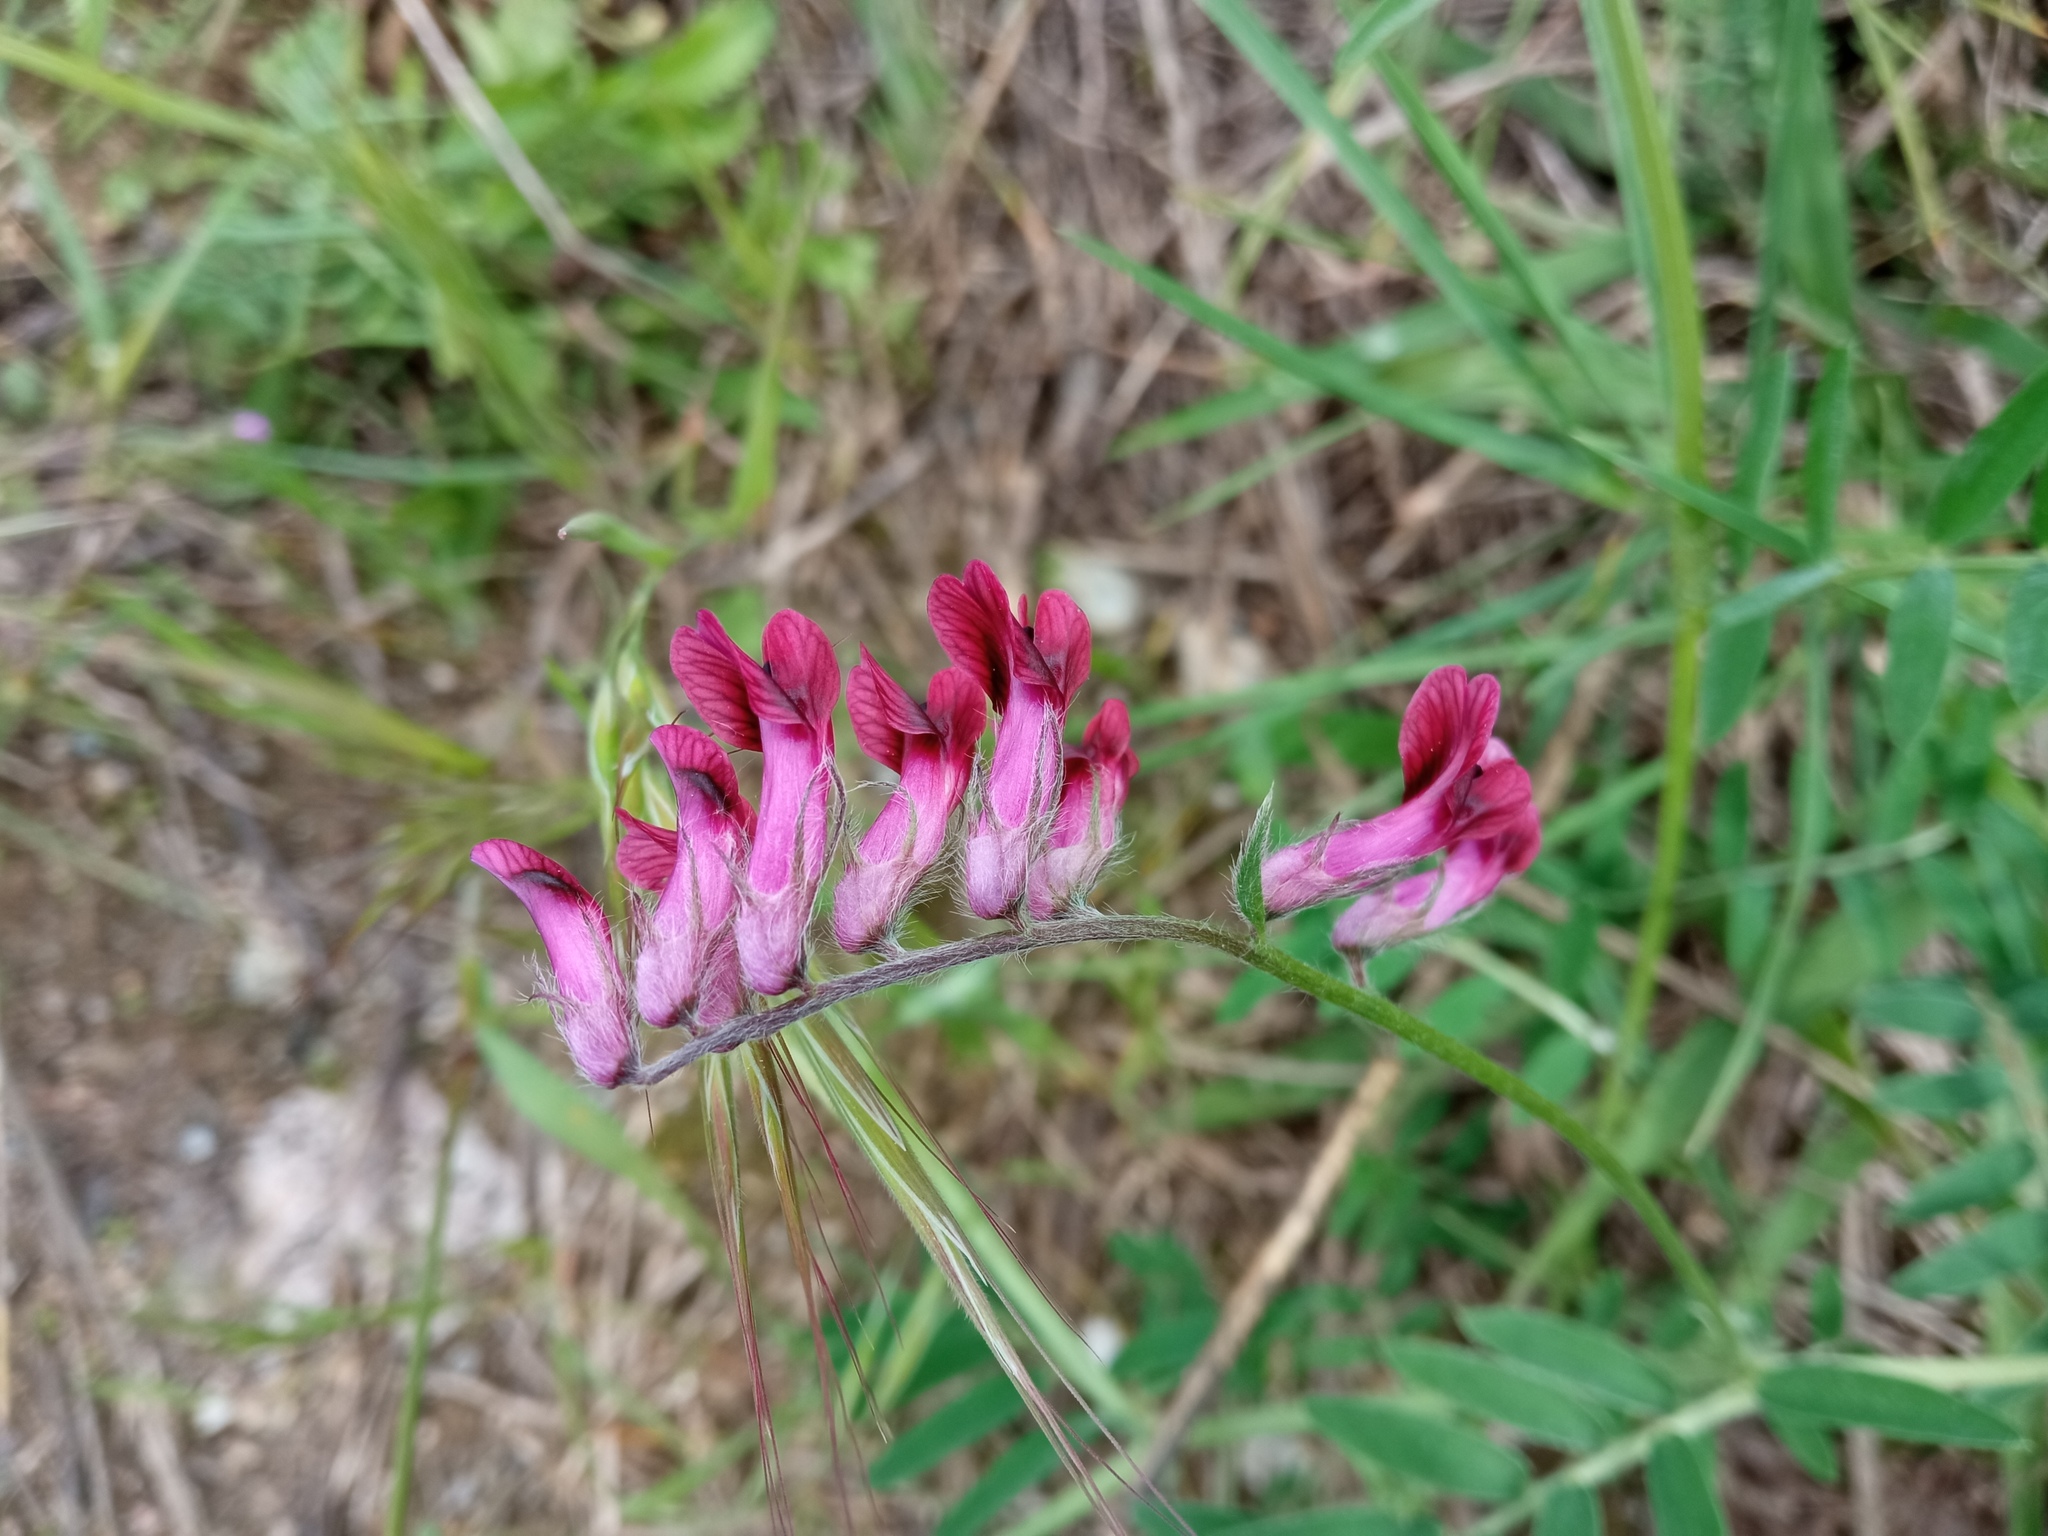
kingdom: Plantae
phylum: Tracheophyta
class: Magnoliopsida
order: Fabales
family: Fabaceae
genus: Vicia
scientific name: Vicia benghalensis
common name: Purple vetch
